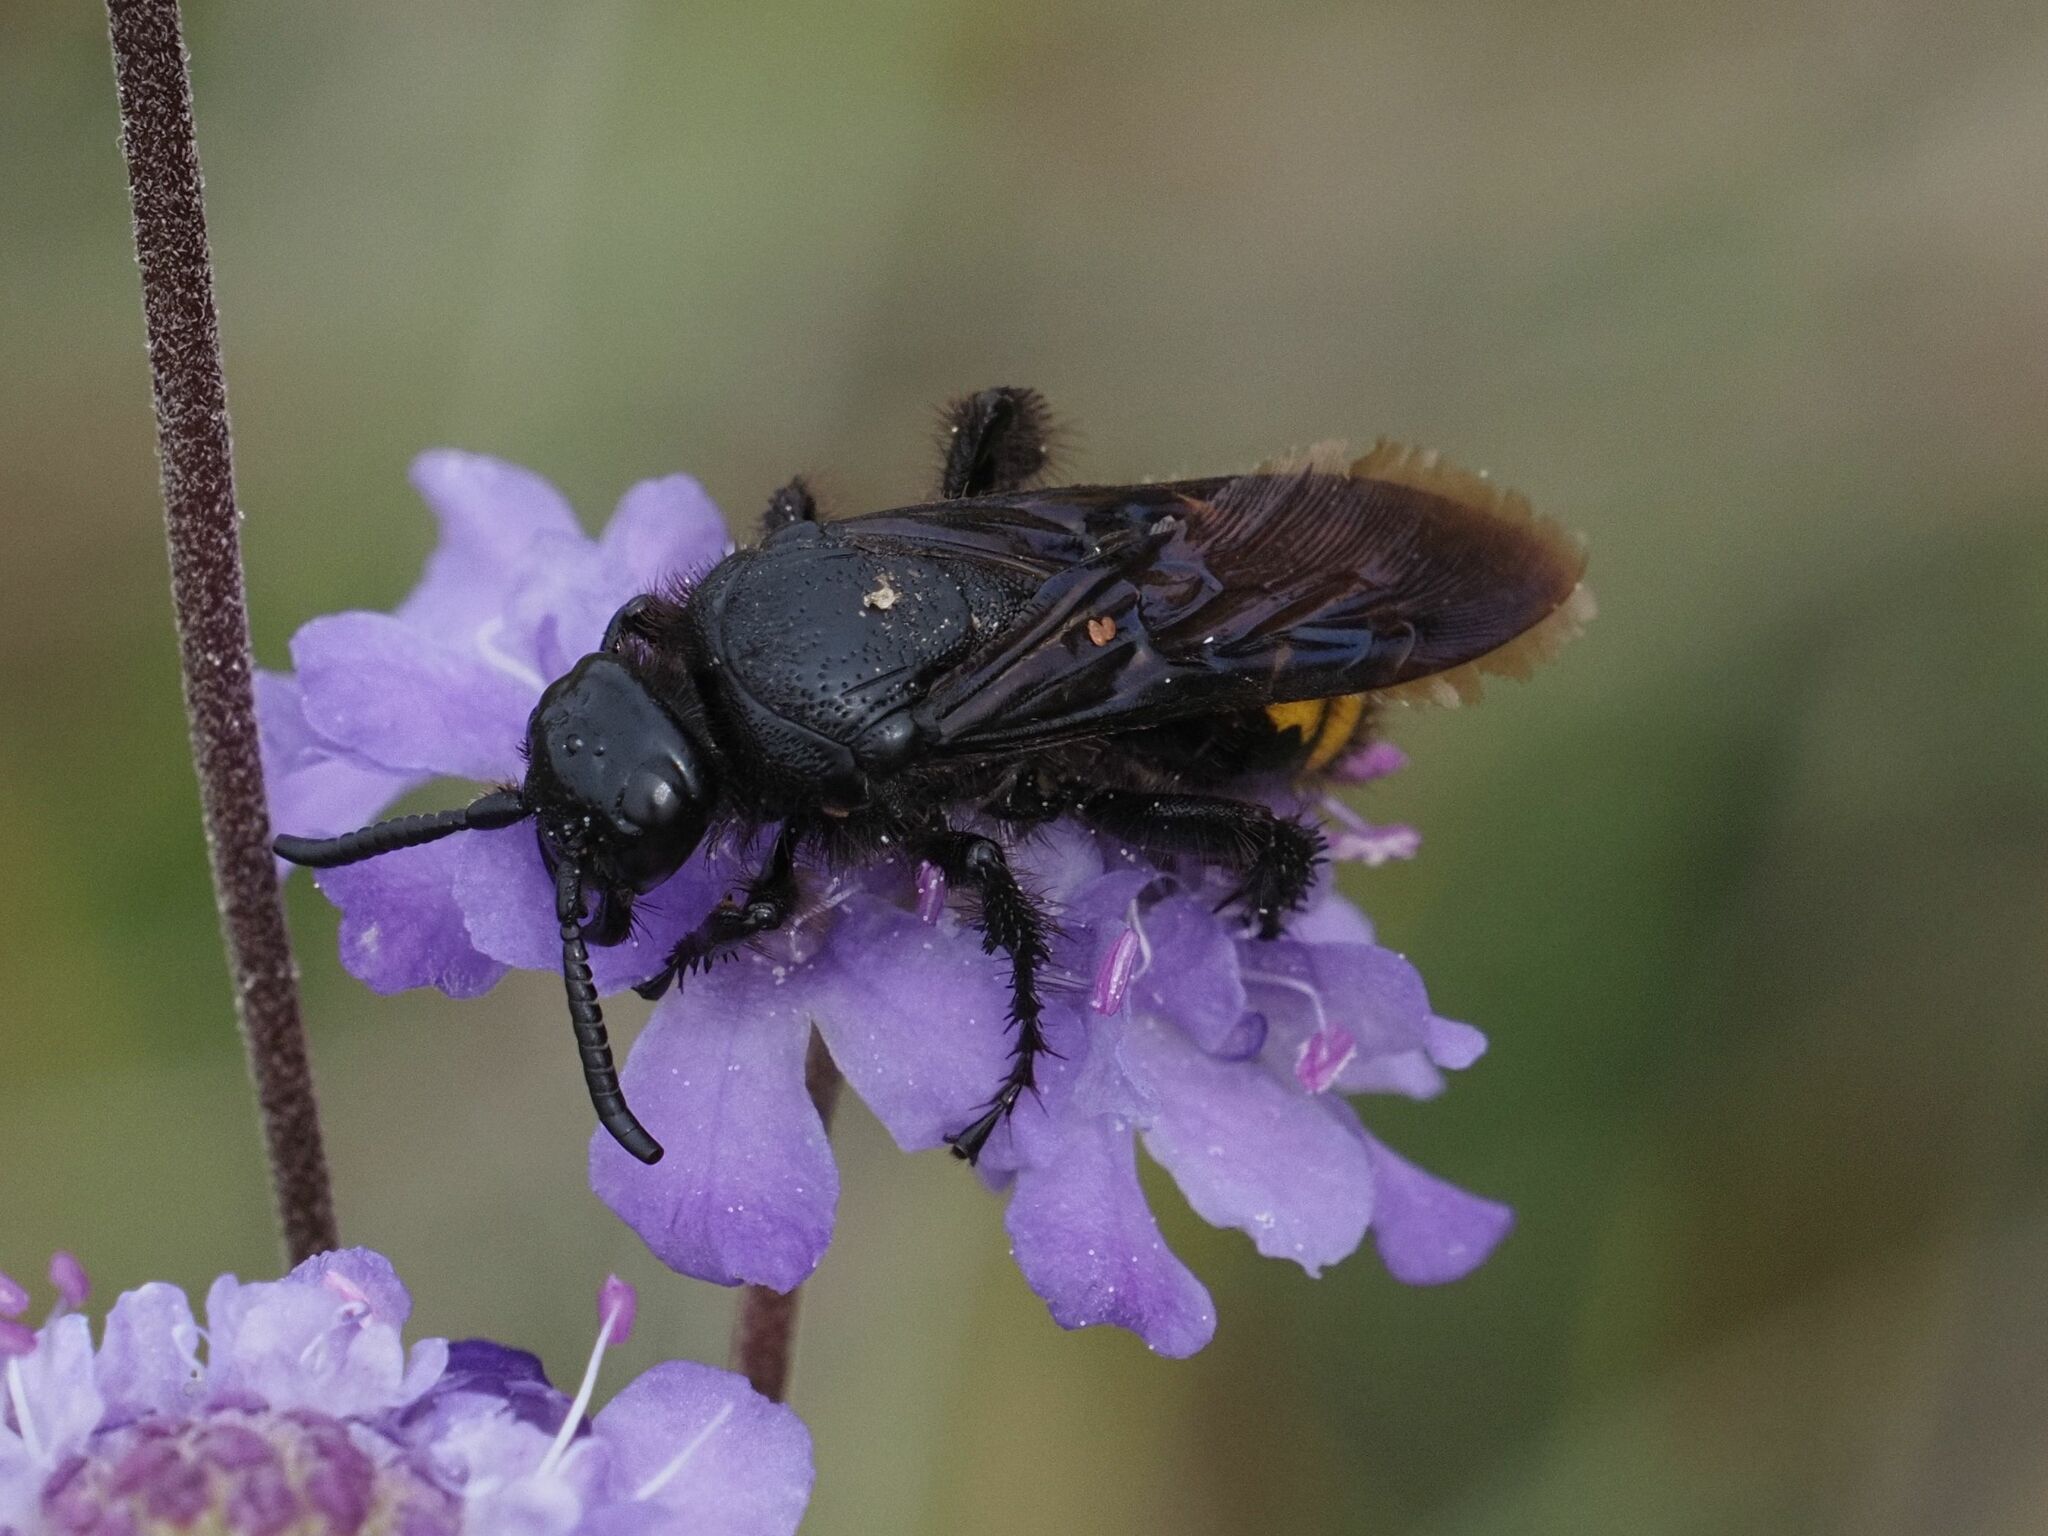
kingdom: Animalia
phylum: Arthropoda
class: Insecta
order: Hymenoptera
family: Scoliidae
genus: Scolia
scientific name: Scolia hirta
